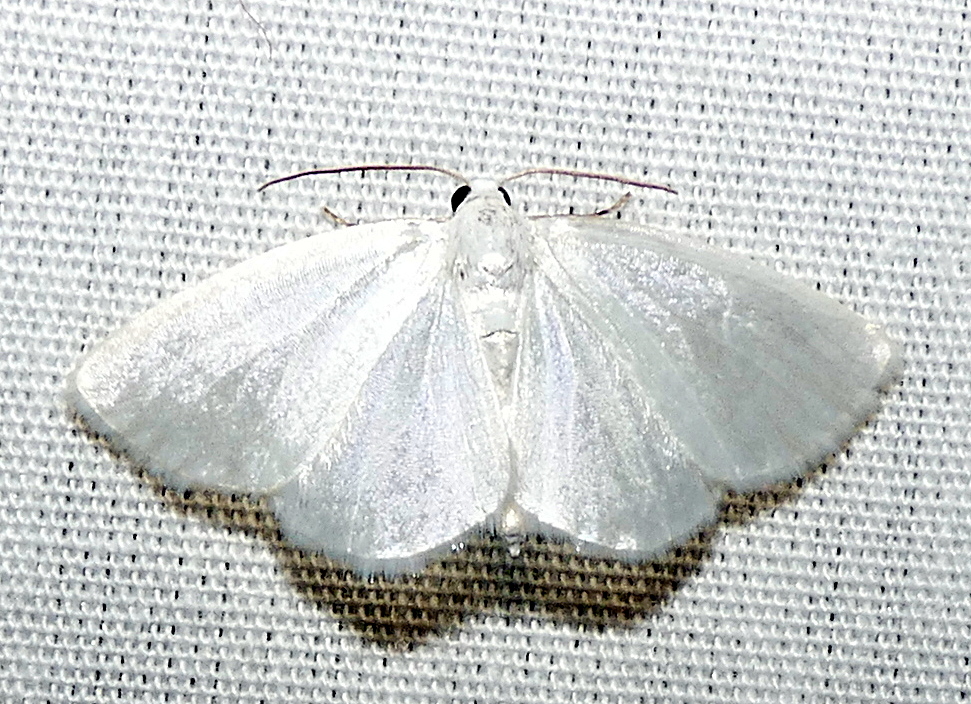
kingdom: Animalia
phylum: Arthropoda
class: Insecta
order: Lepidoptera
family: Geometridae
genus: Lomographa
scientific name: Lomographa vestaliata
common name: White spring moth
